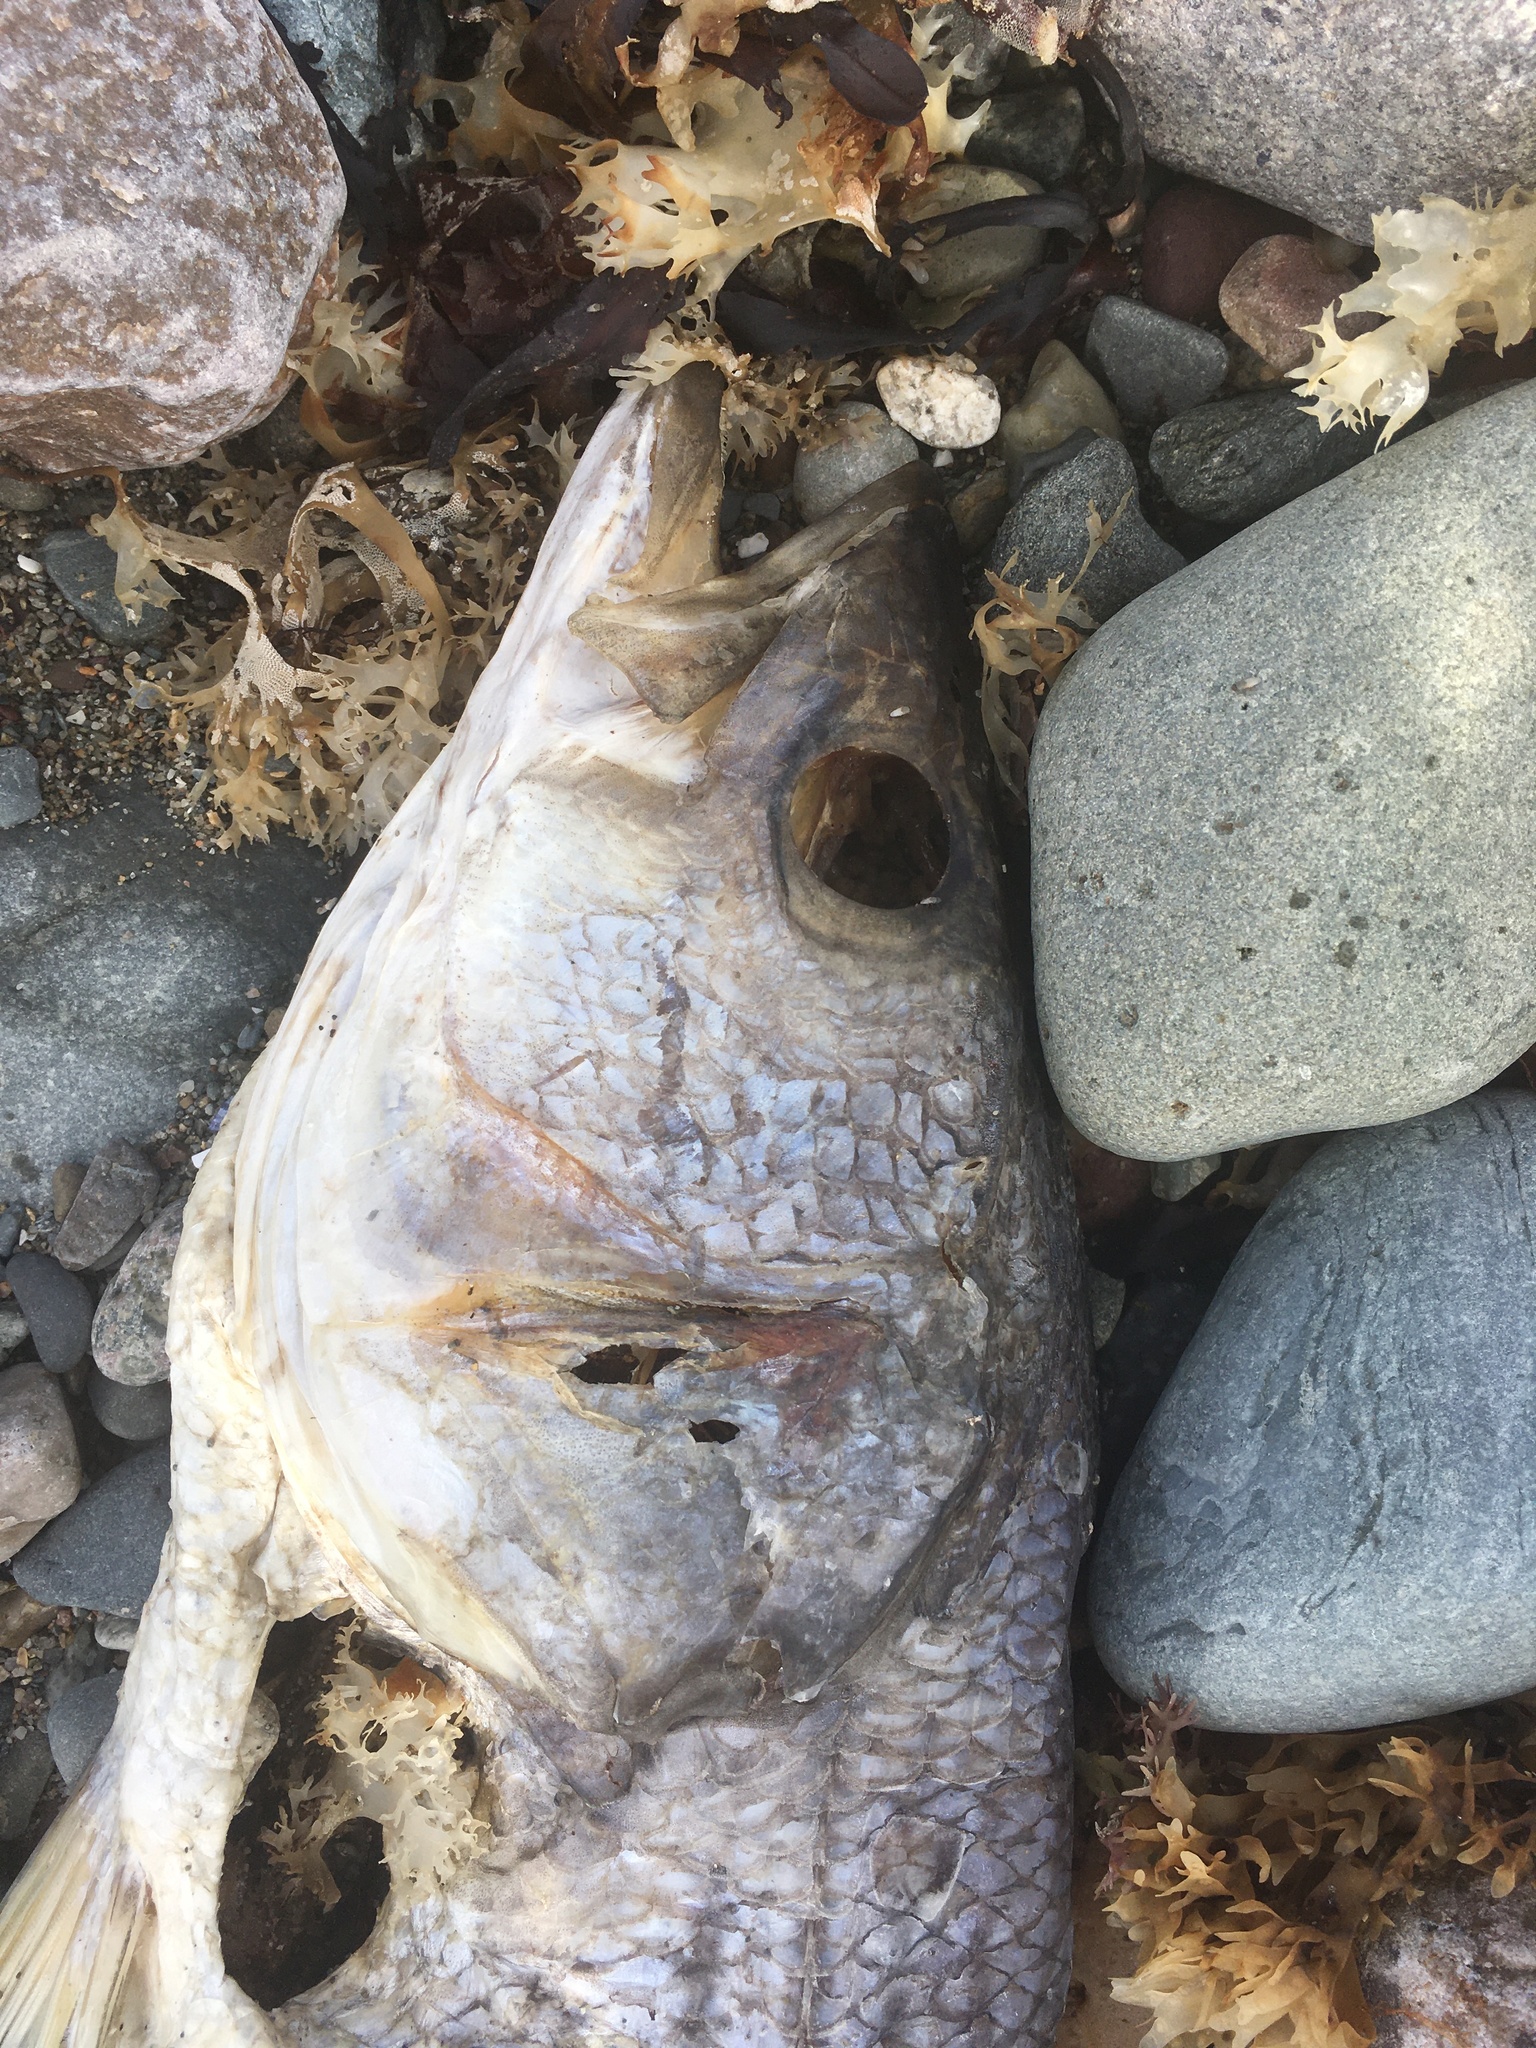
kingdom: Animalia
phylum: Chordata
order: Perciformes
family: Moronidae
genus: Morone
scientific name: Morone saxatilis
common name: Striped bass
